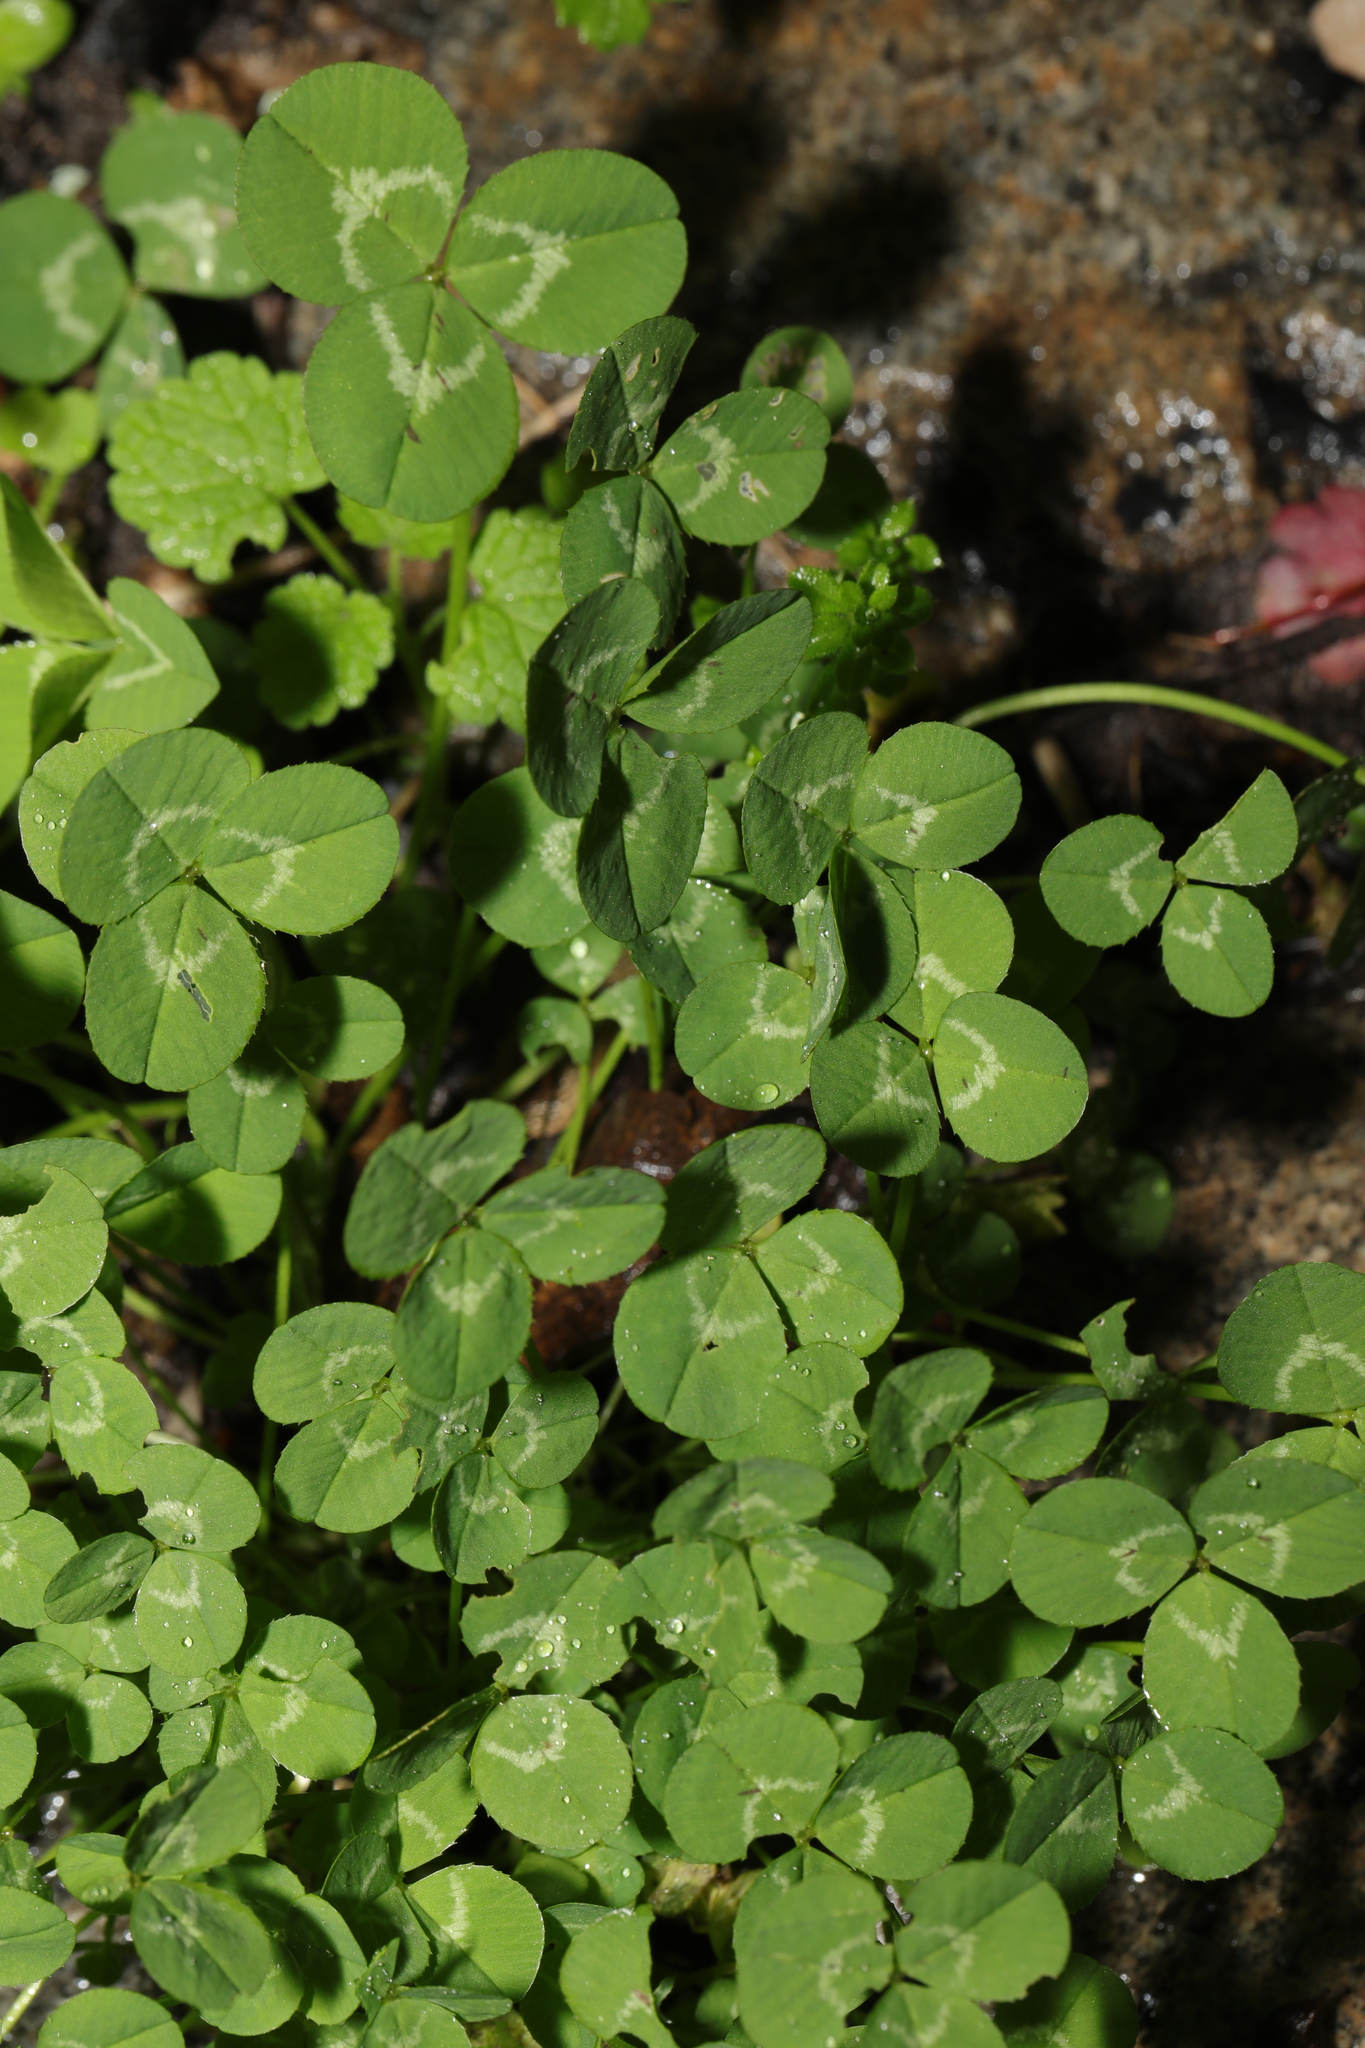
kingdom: Plantae
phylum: Tracheophyta
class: Magnoliopsida
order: Fabales
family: Fabaceae
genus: Trifolium
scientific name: Trifolium repens
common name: White clover
